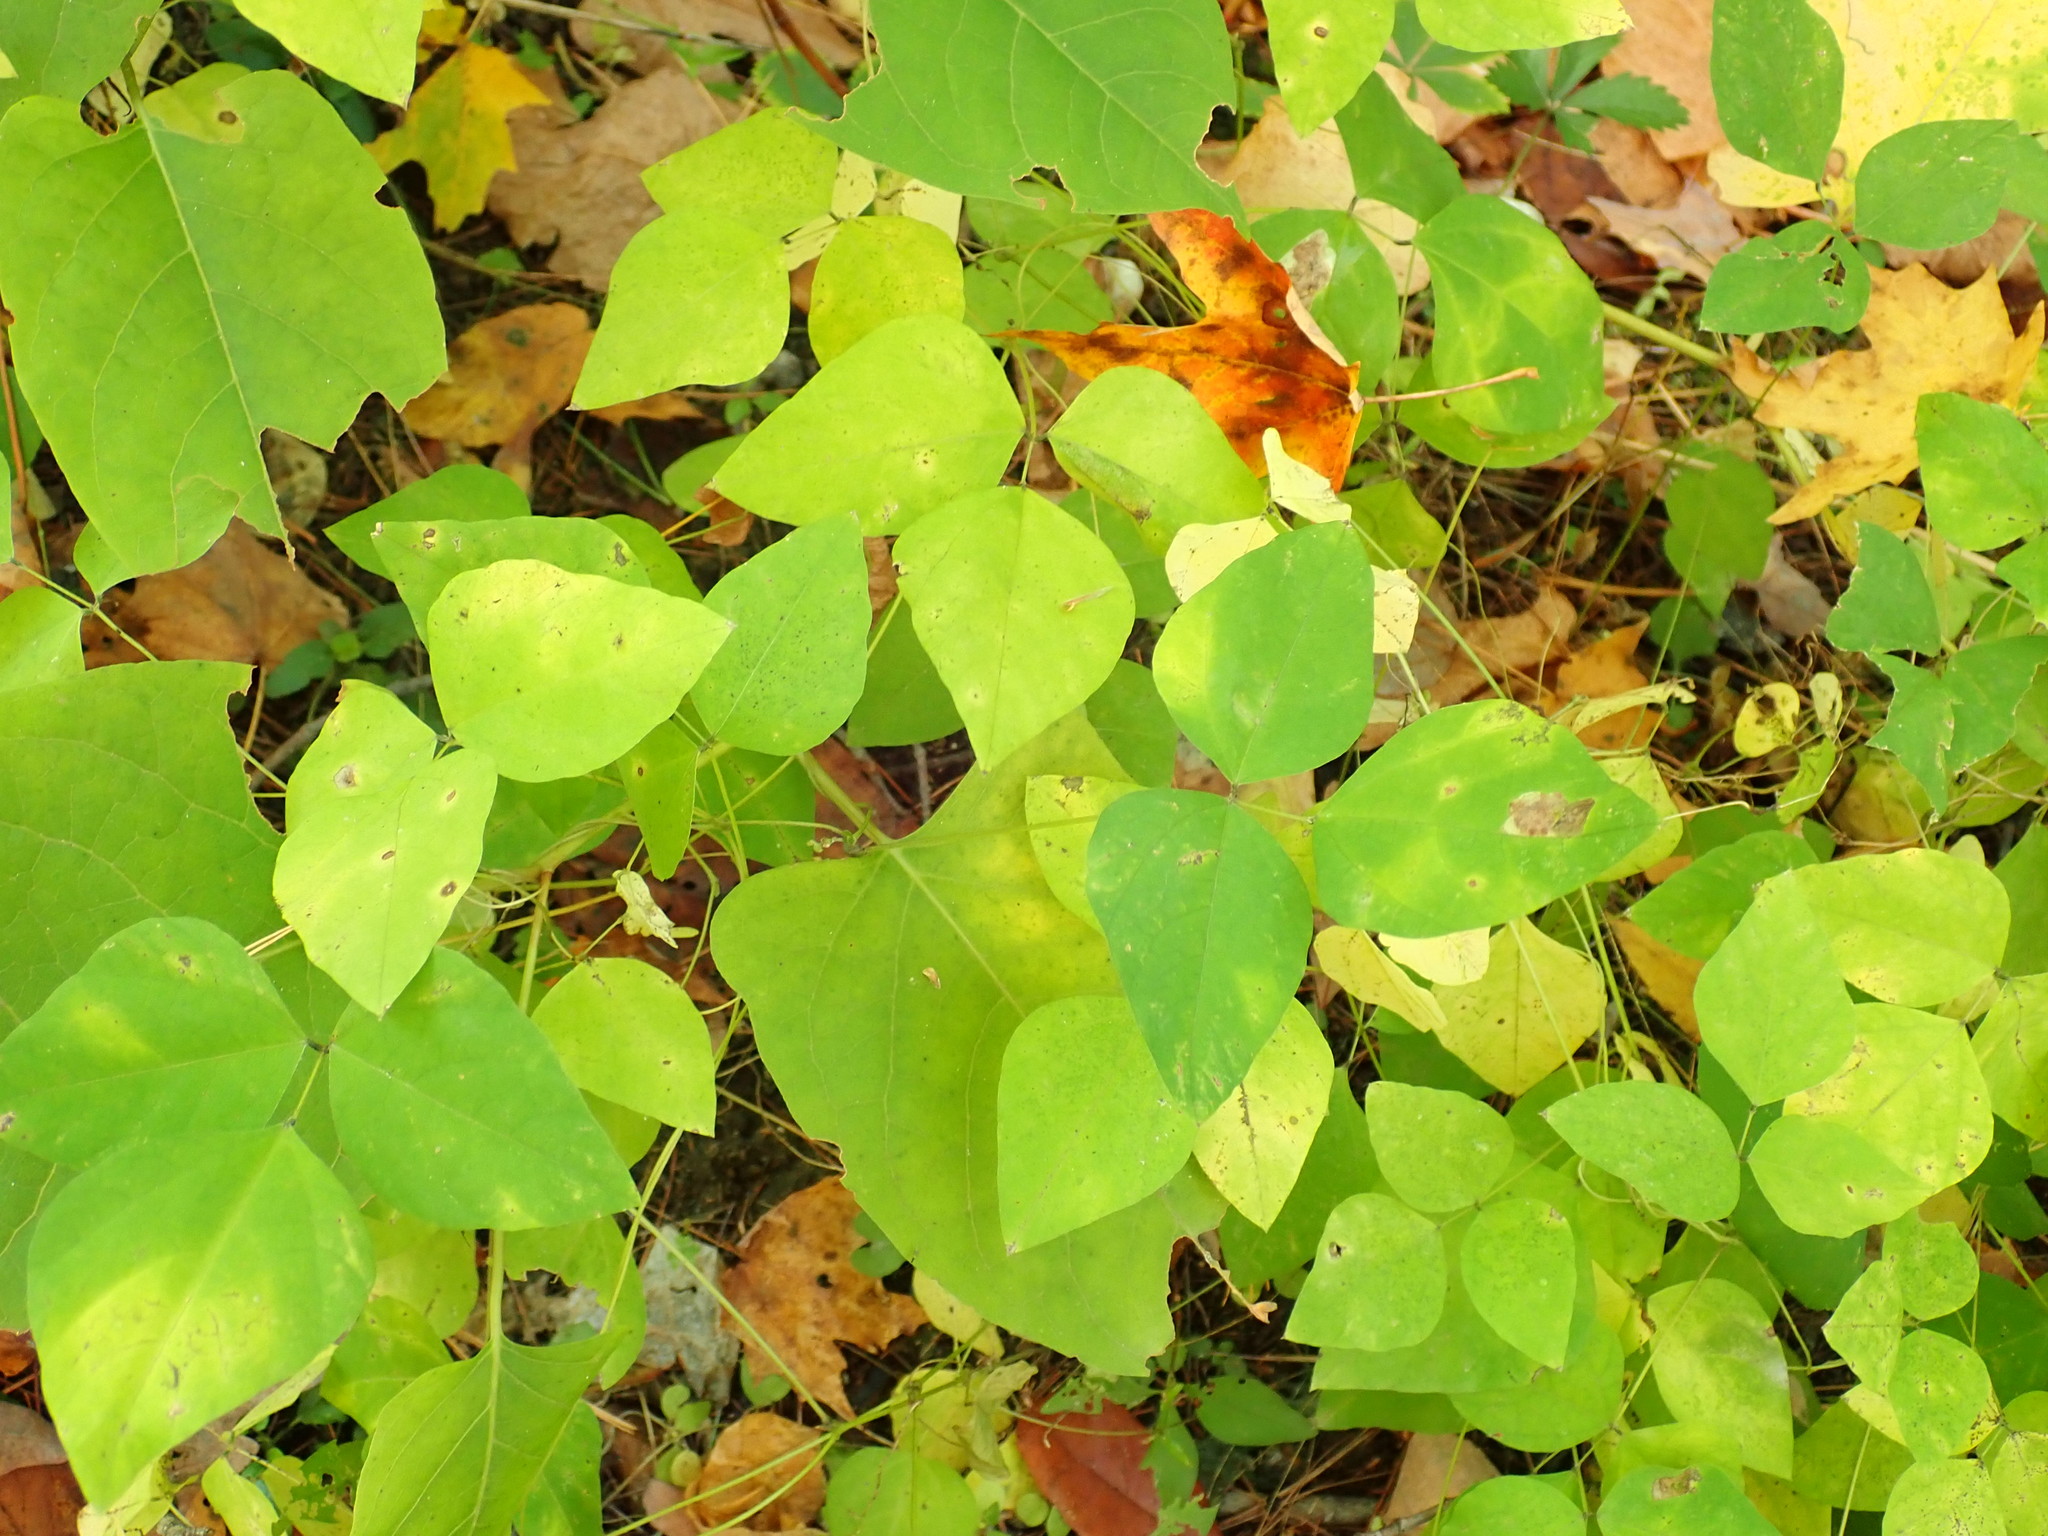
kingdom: Plantae
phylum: Tracheophyta
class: Magnoliopsida
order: Fabales
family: Fabaceae
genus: Amphicarpaea
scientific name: Amphicarpaea bracteata
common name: American hog peanut
